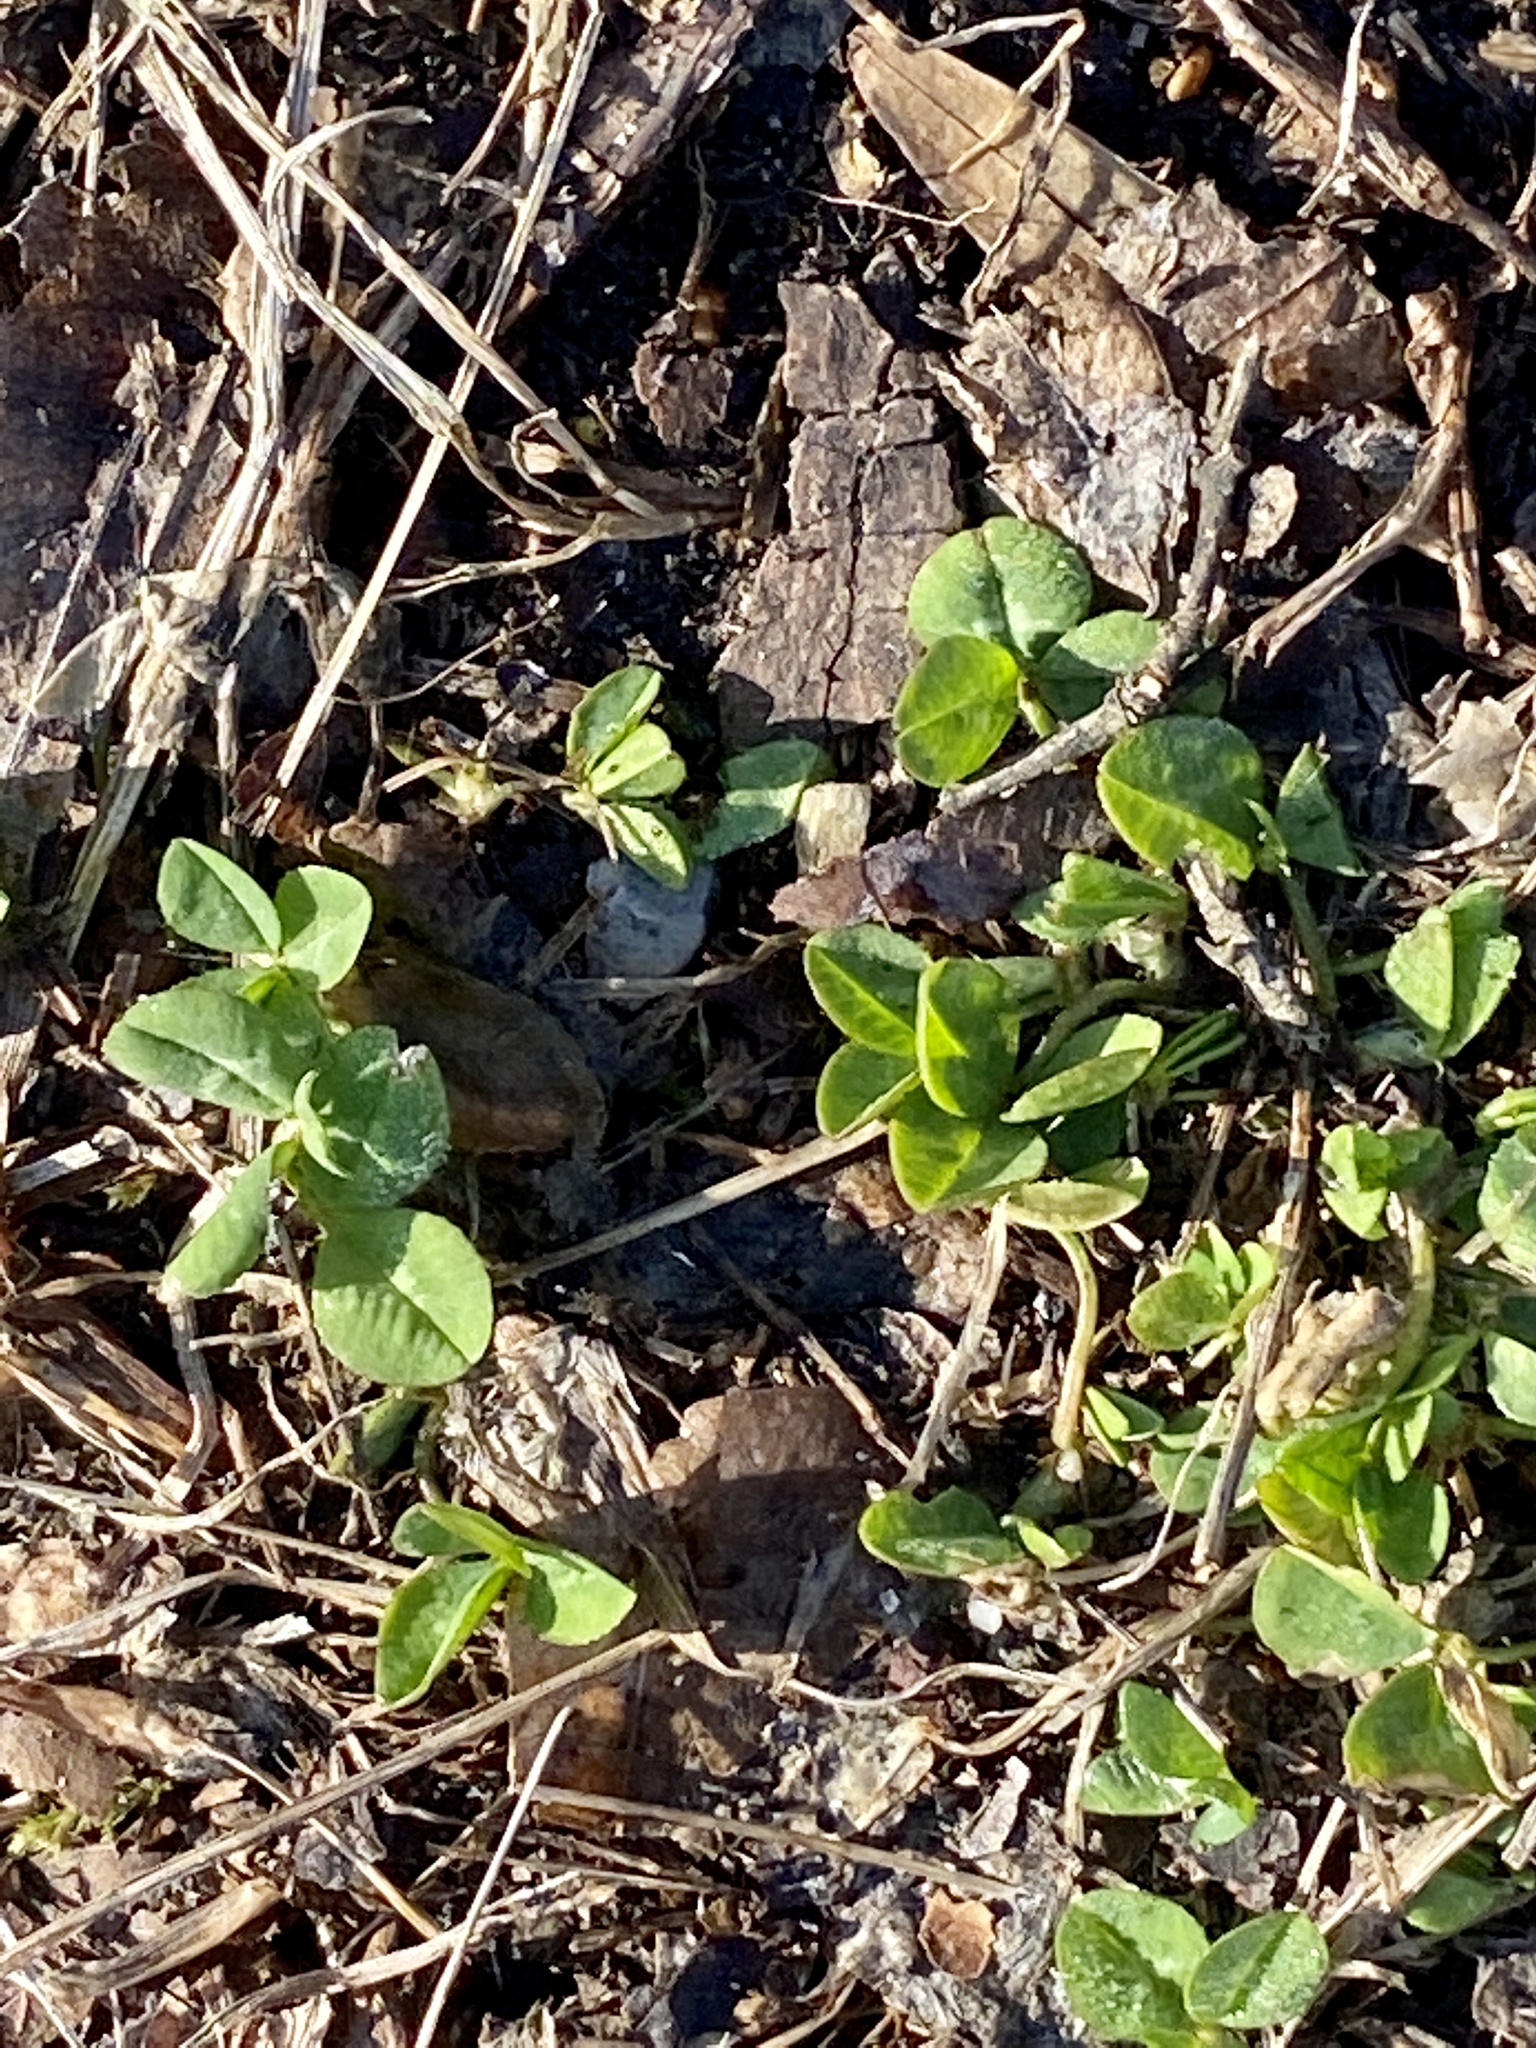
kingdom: Plantae
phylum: Tracheophyta
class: Magnoliopsida
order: Fabales
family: Fabaceae
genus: Trifolium
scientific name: Trifolium repens
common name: White clover
